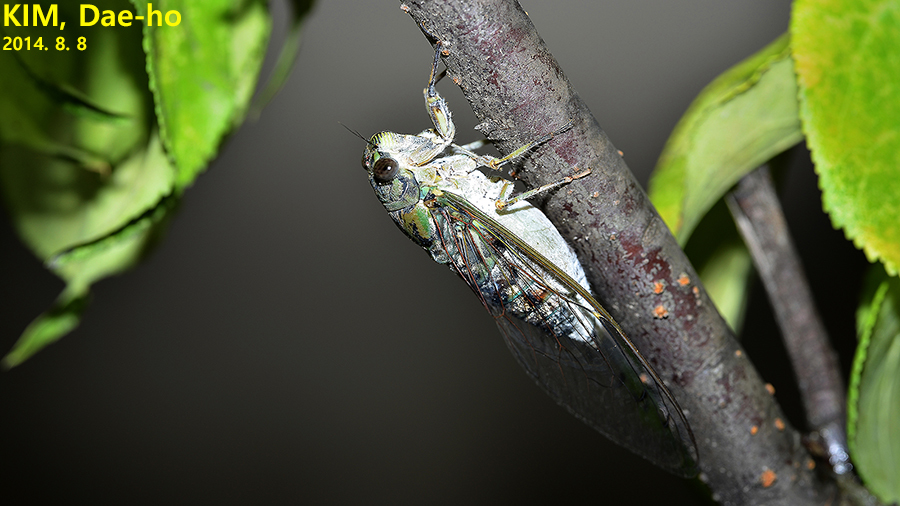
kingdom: Animalia
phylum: Arthropoda
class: Insecta
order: Hemiptera
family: Cicadidae
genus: Meimuna
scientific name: Meimuna mongolica
